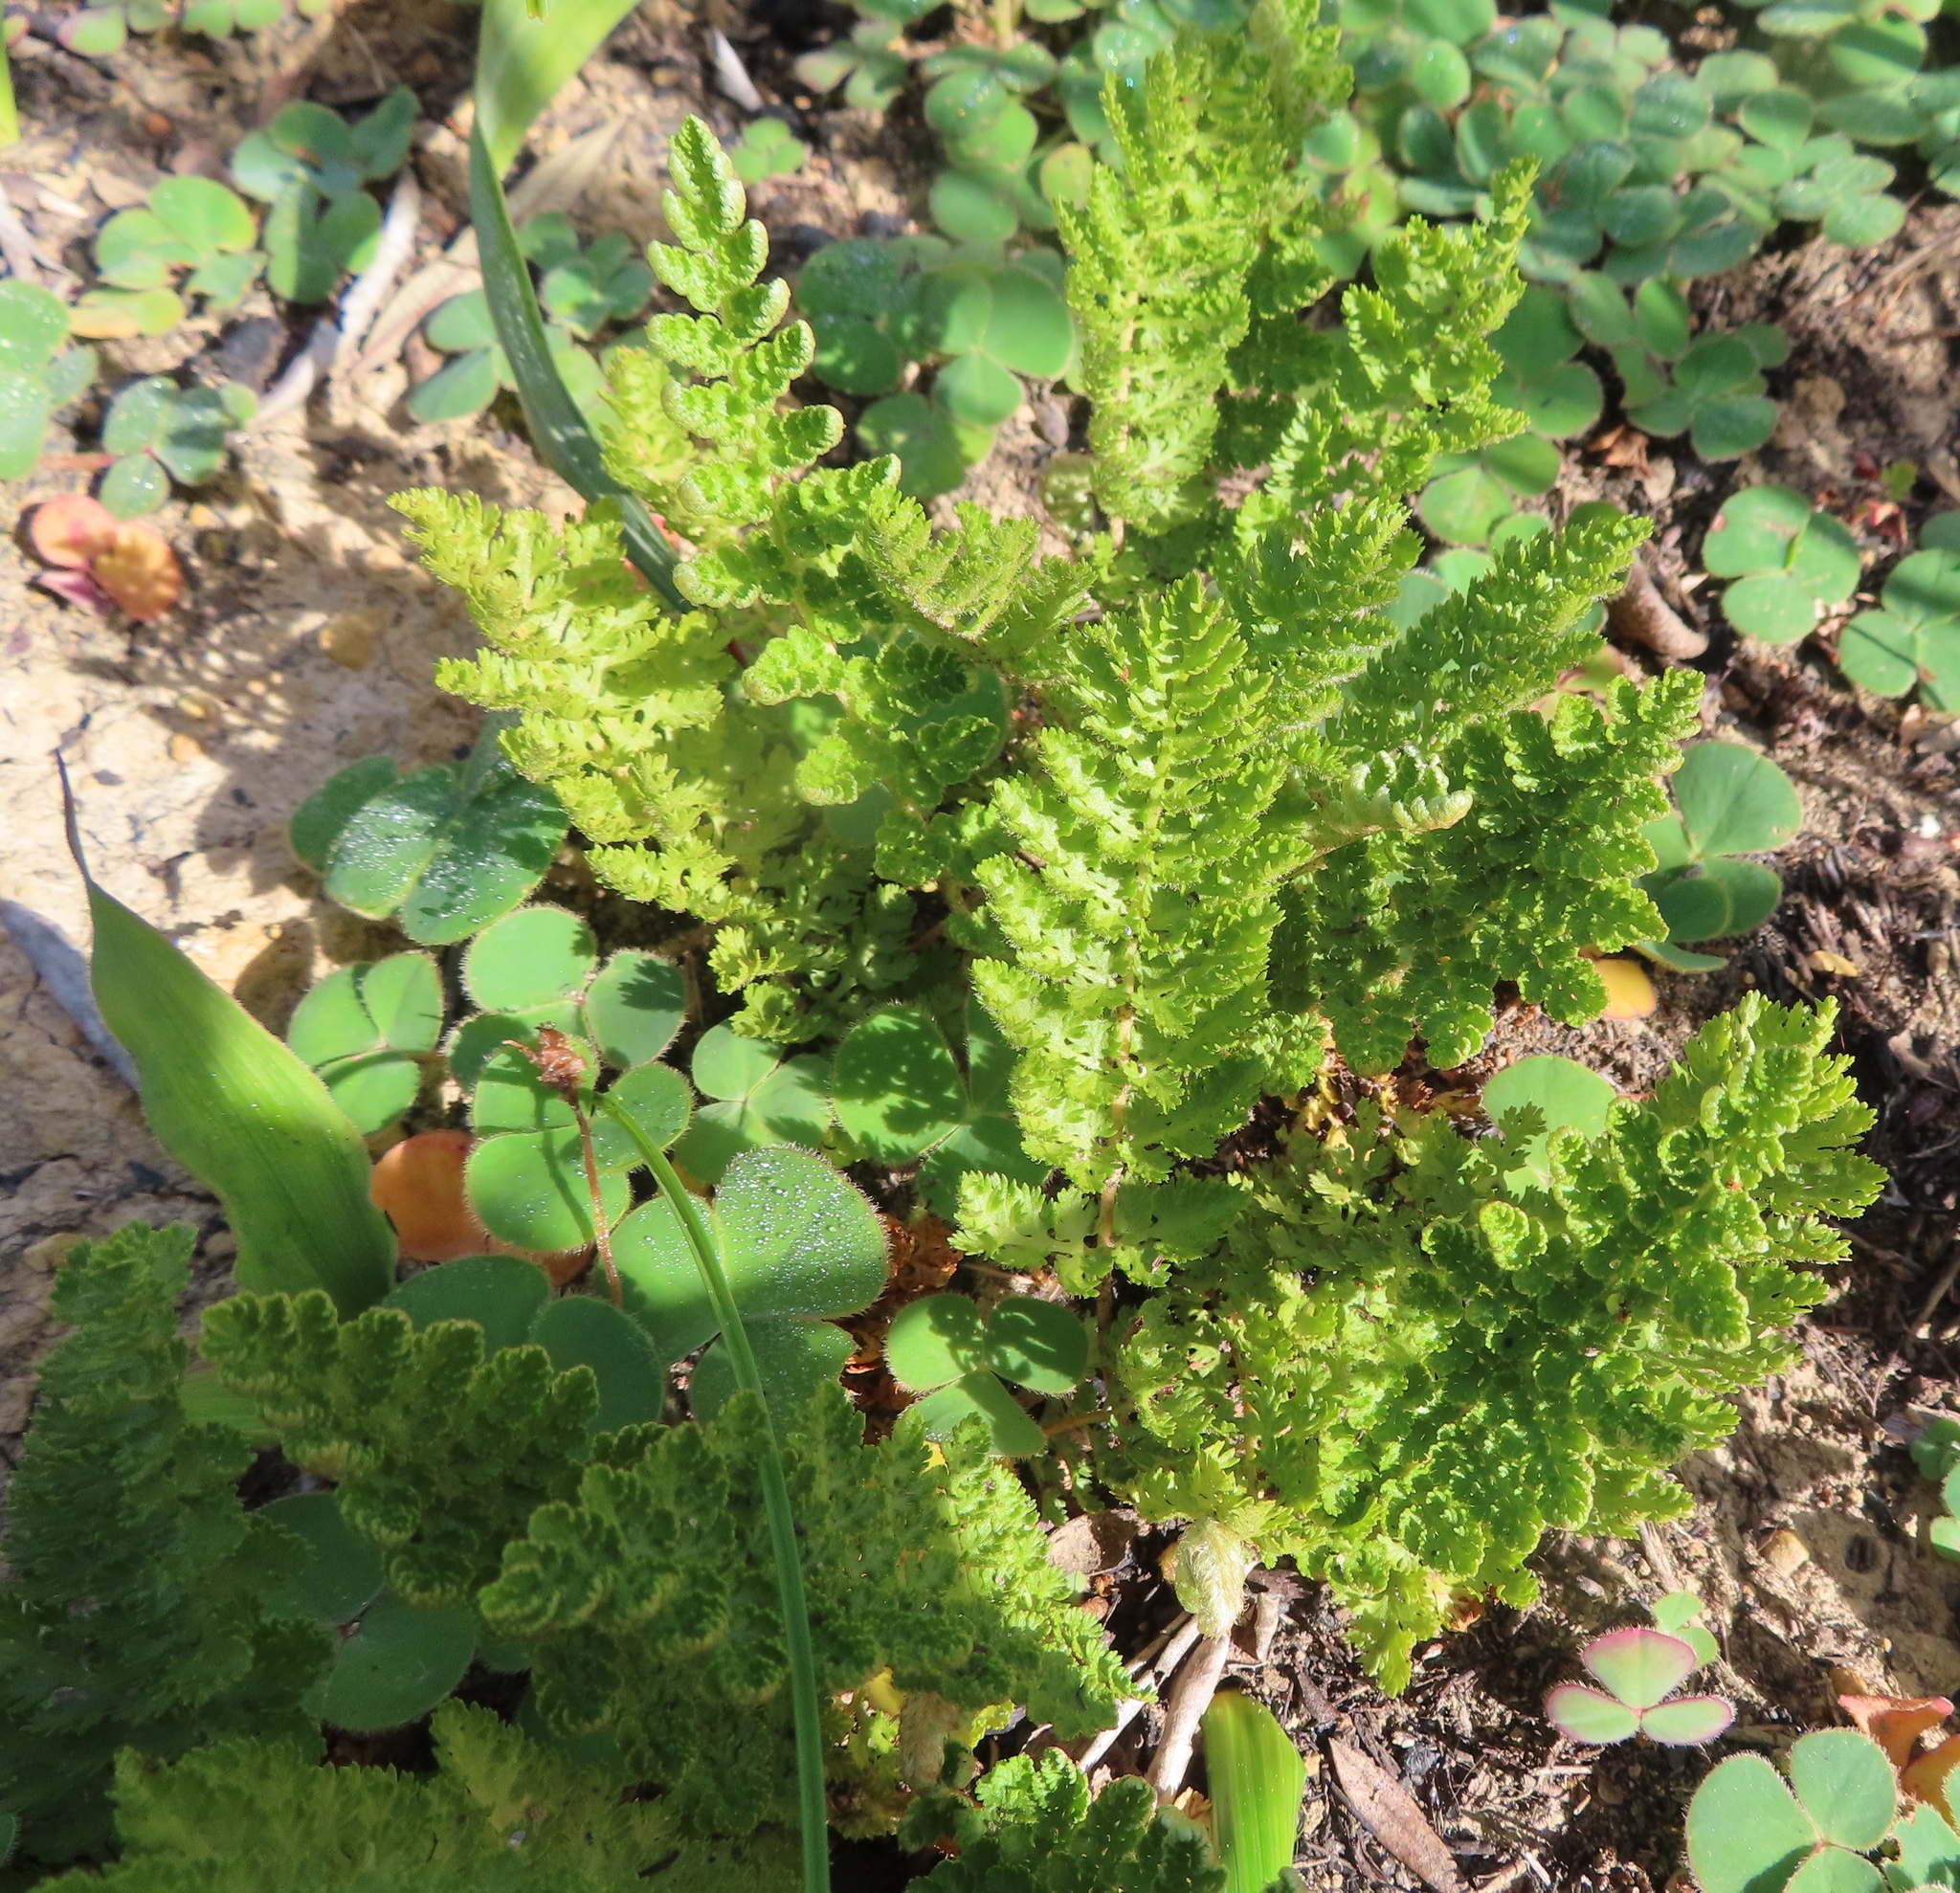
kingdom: Plantae
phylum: Tracheophyta
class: Polypodiopsida
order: Schizaeales
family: Anemiaceae
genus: Anemia
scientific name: Anemia caffrorum
